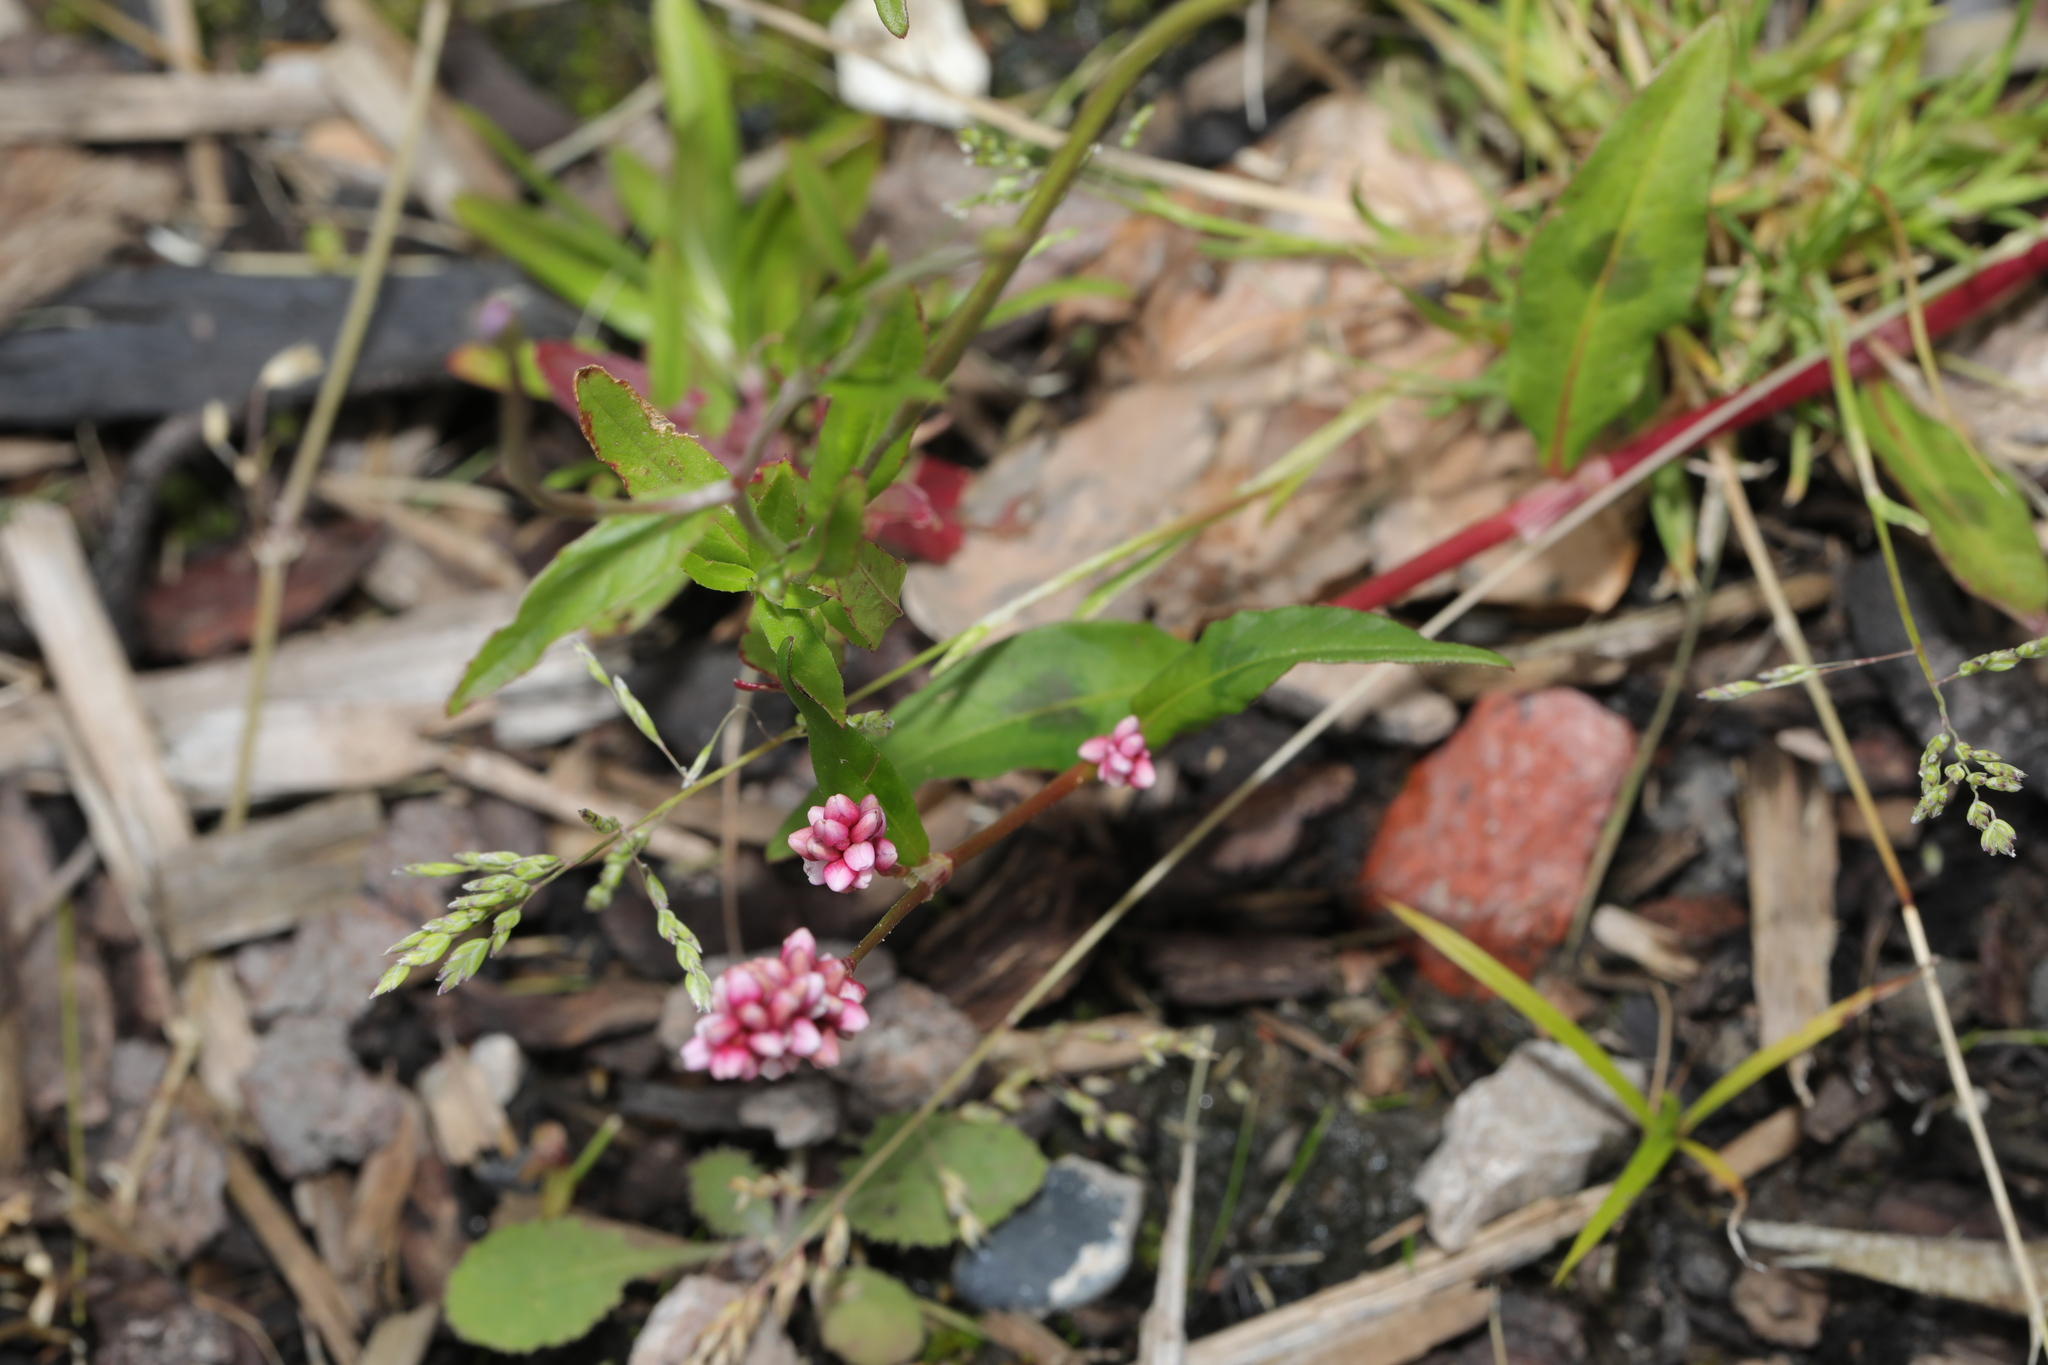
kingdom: Plantae
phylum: Tracheophyta
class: Magnoliopsida
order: Caryophyllales
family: Polygonaceae
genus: Persicaria
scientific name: Persicaria maculosa
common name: Redshank
